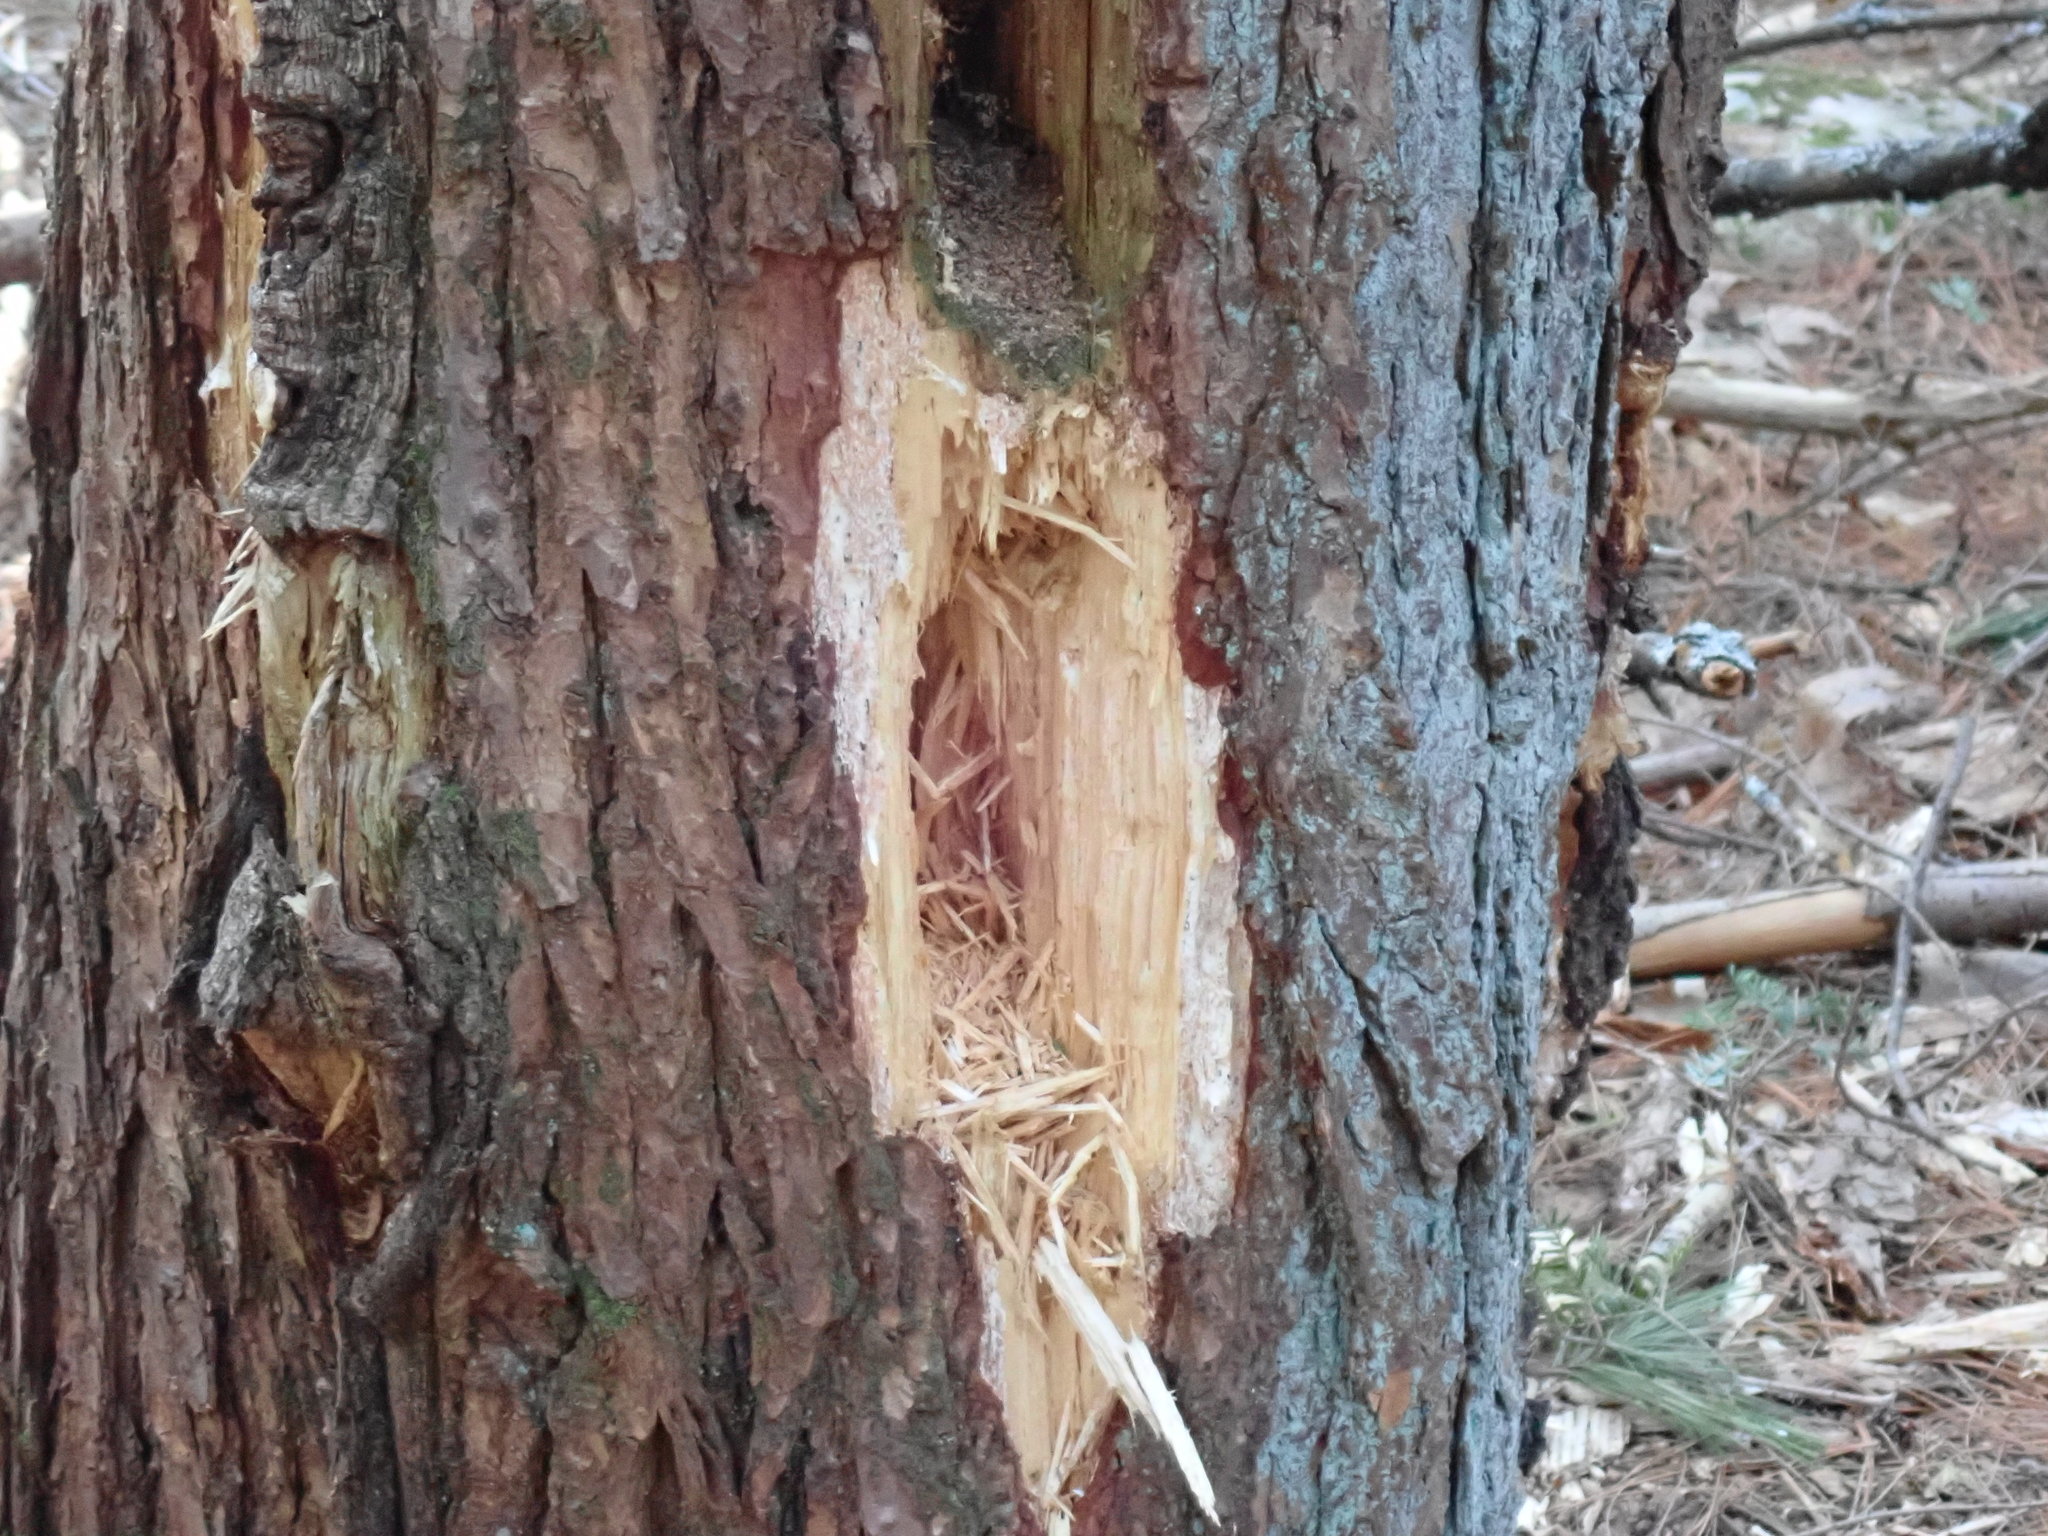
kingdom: Animalia
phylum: Chordata
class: Aves
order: Piciformes
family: Picidae
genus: Dryocopus
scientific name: Dryocopus pileatus
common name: Pileated woodpecker
